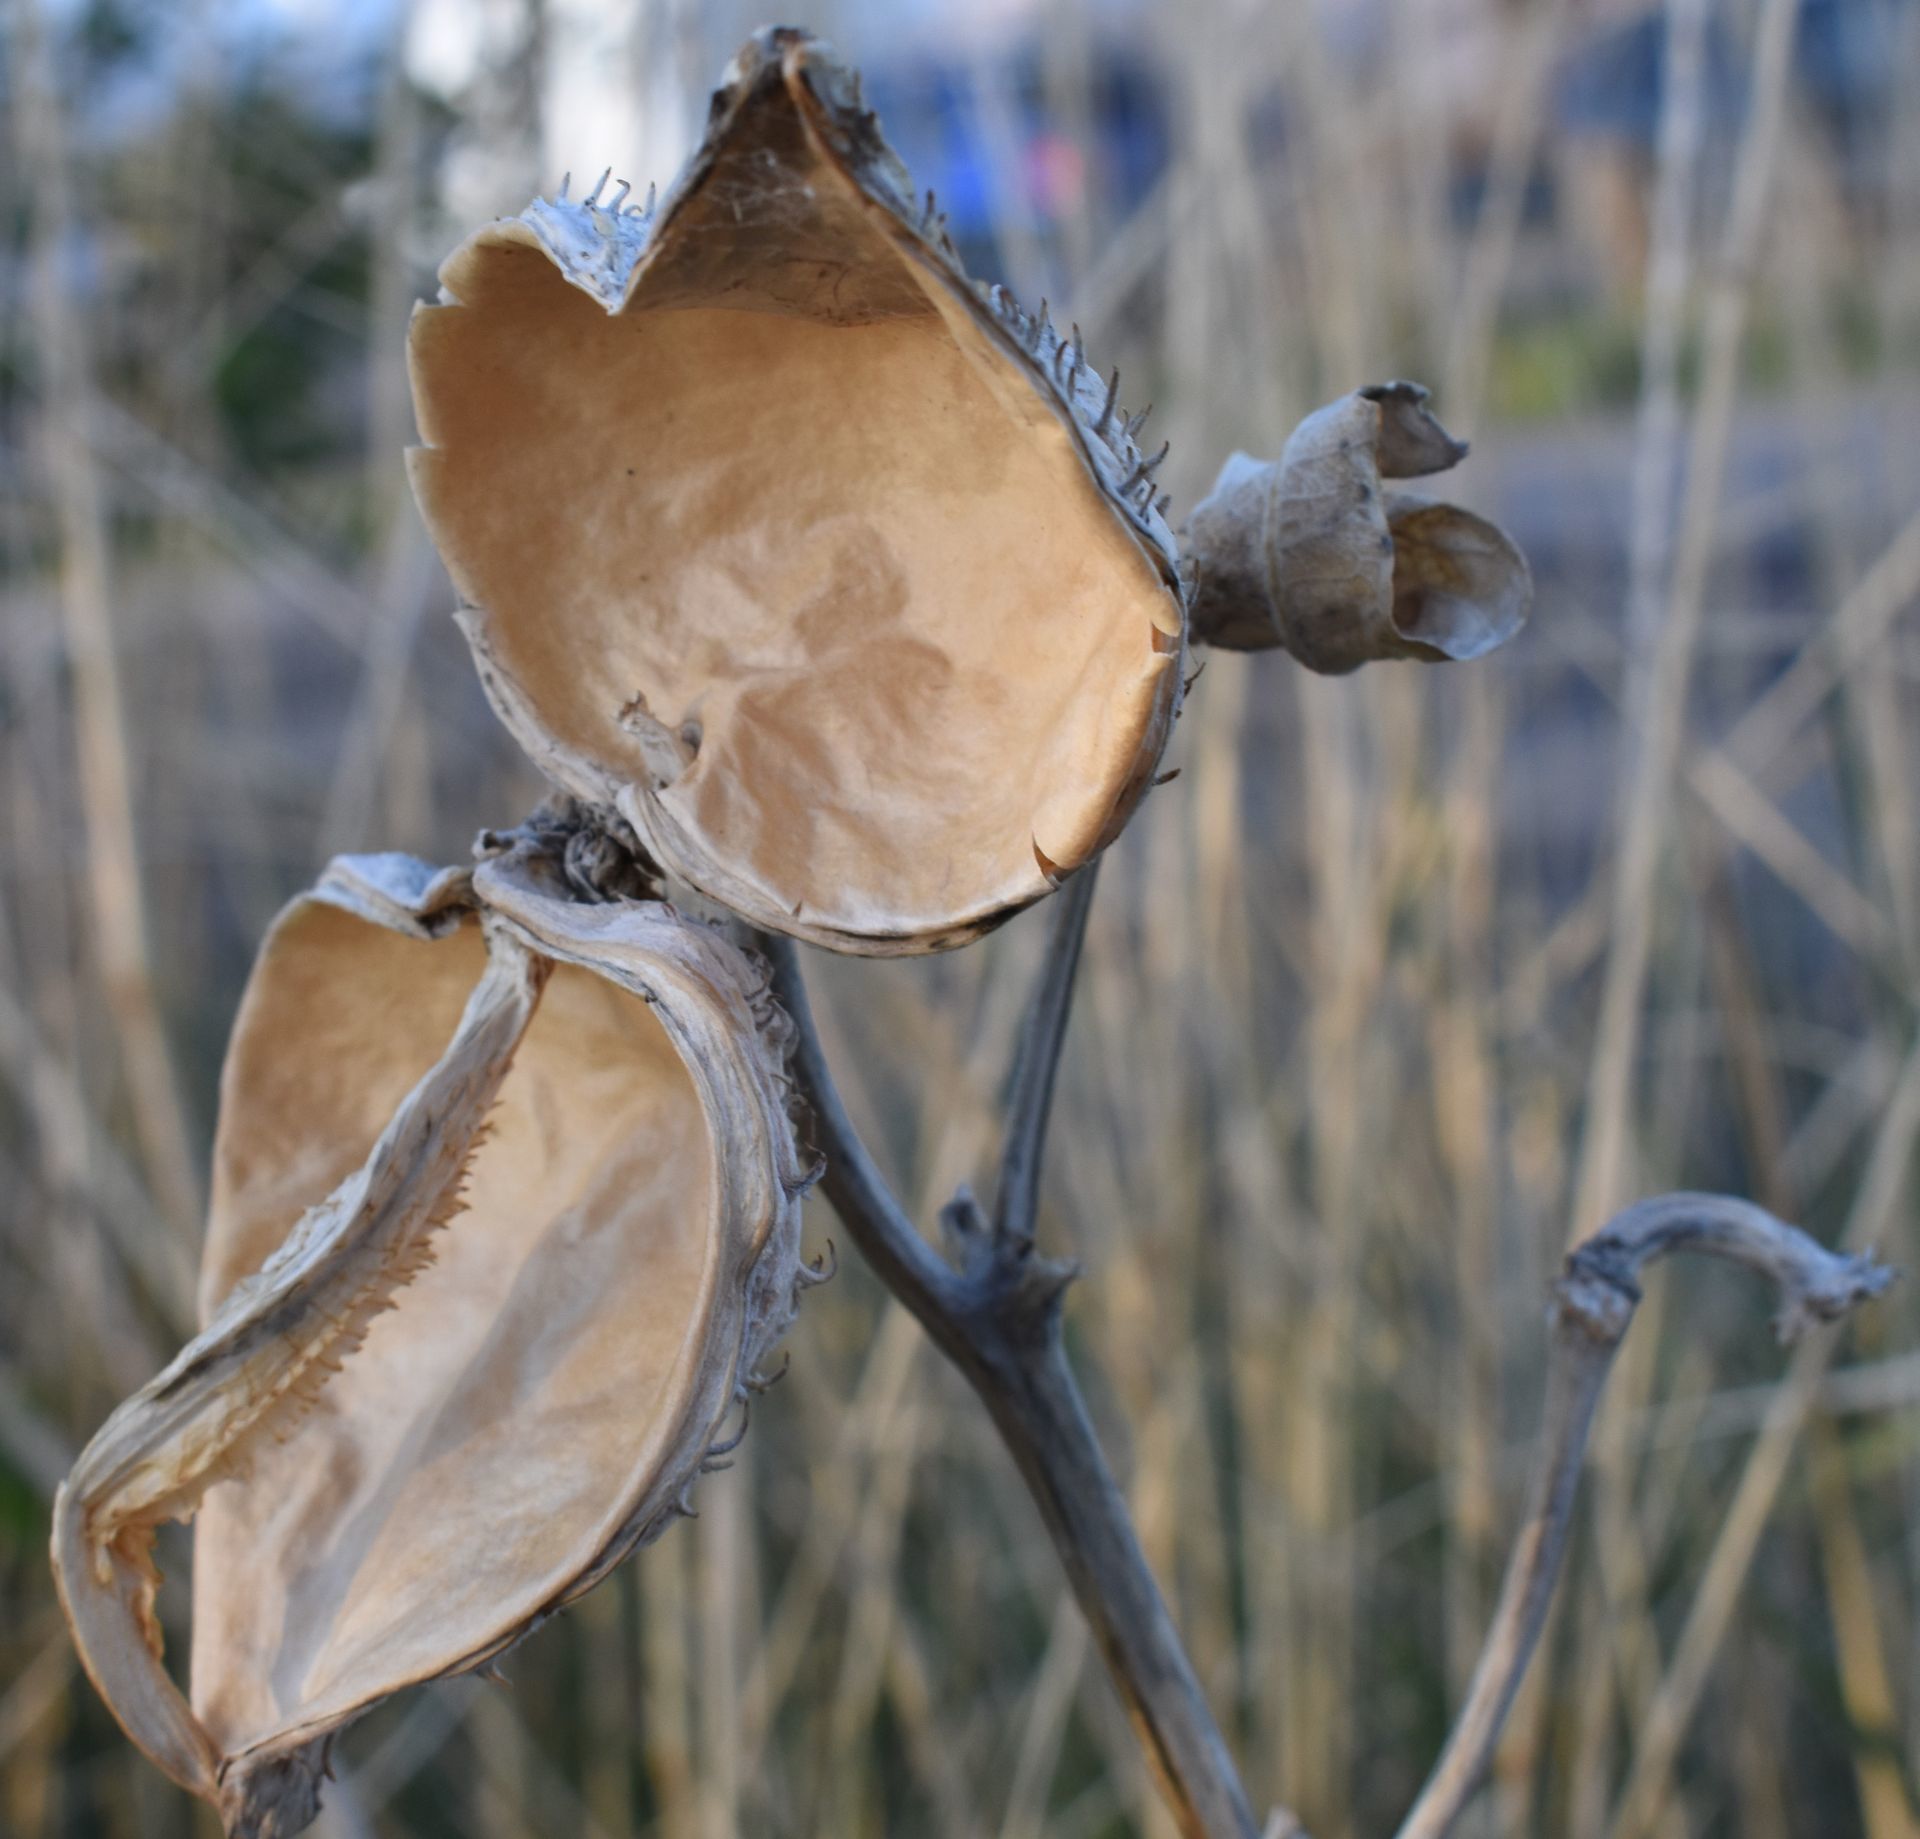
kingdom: Plantae
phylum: Tracheophyta
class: Magnoliopsida
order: Gentianales
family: Apocynaceae
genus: Asclepias
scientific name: Asclepias speciosa
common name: Showy milkweed
